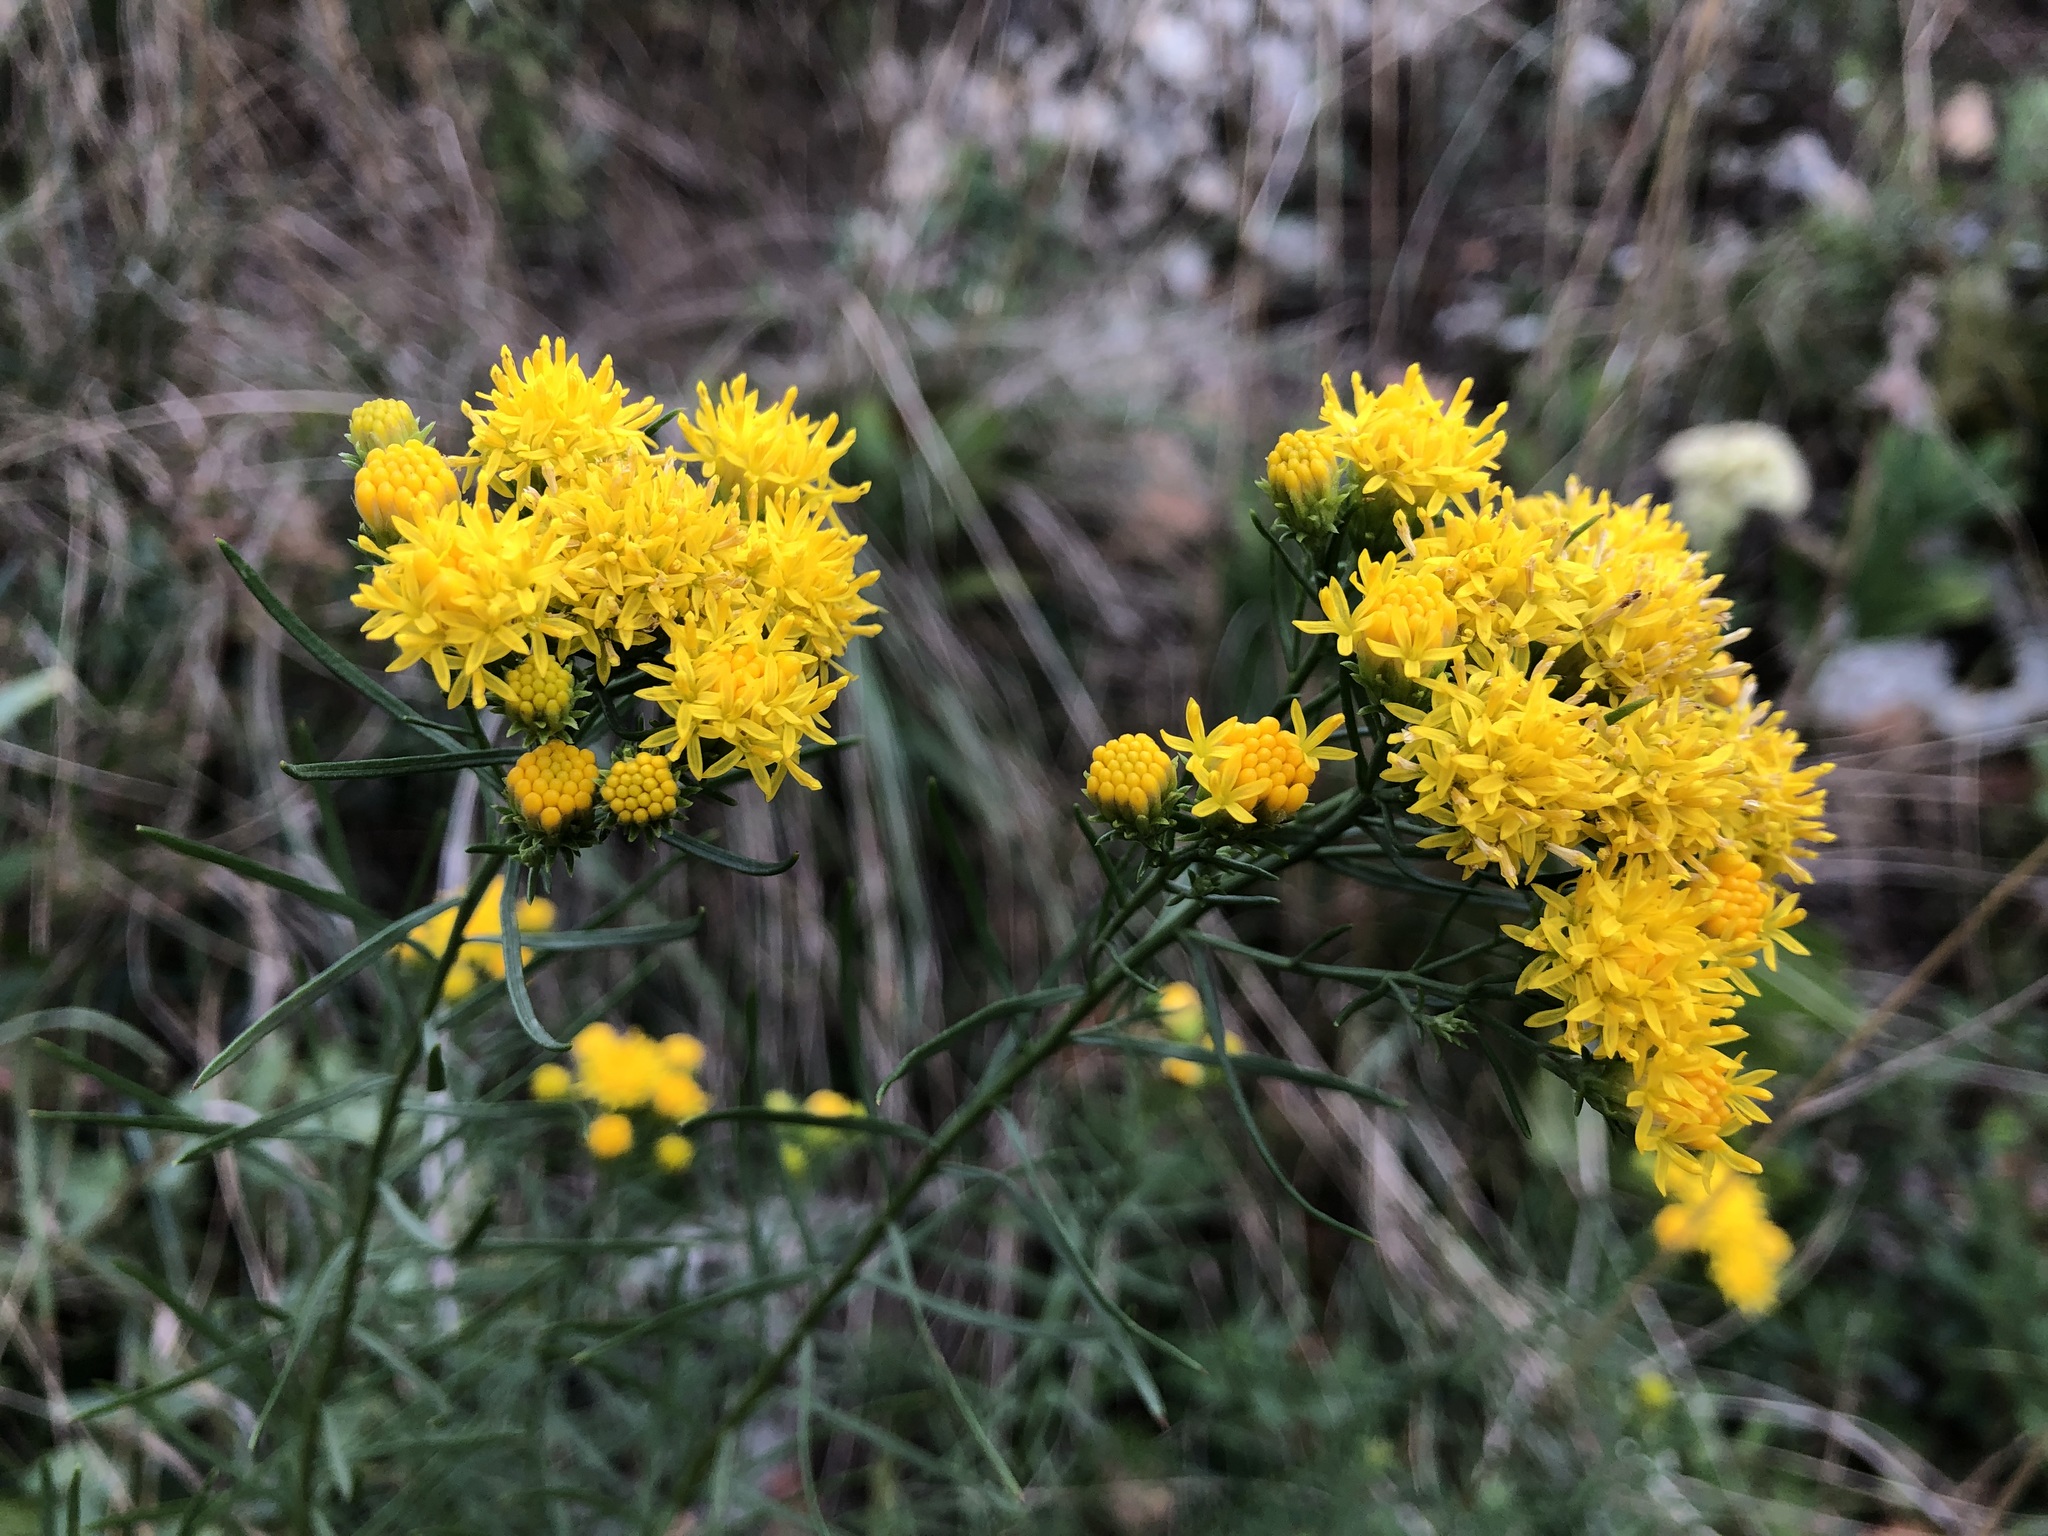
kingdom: Plantae
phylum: Tracheophyta
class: Magnoliopsida
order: Asterales
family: Asteraceae
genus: Galatella
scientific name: Galatella linosyris
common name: Goldilocks aster
